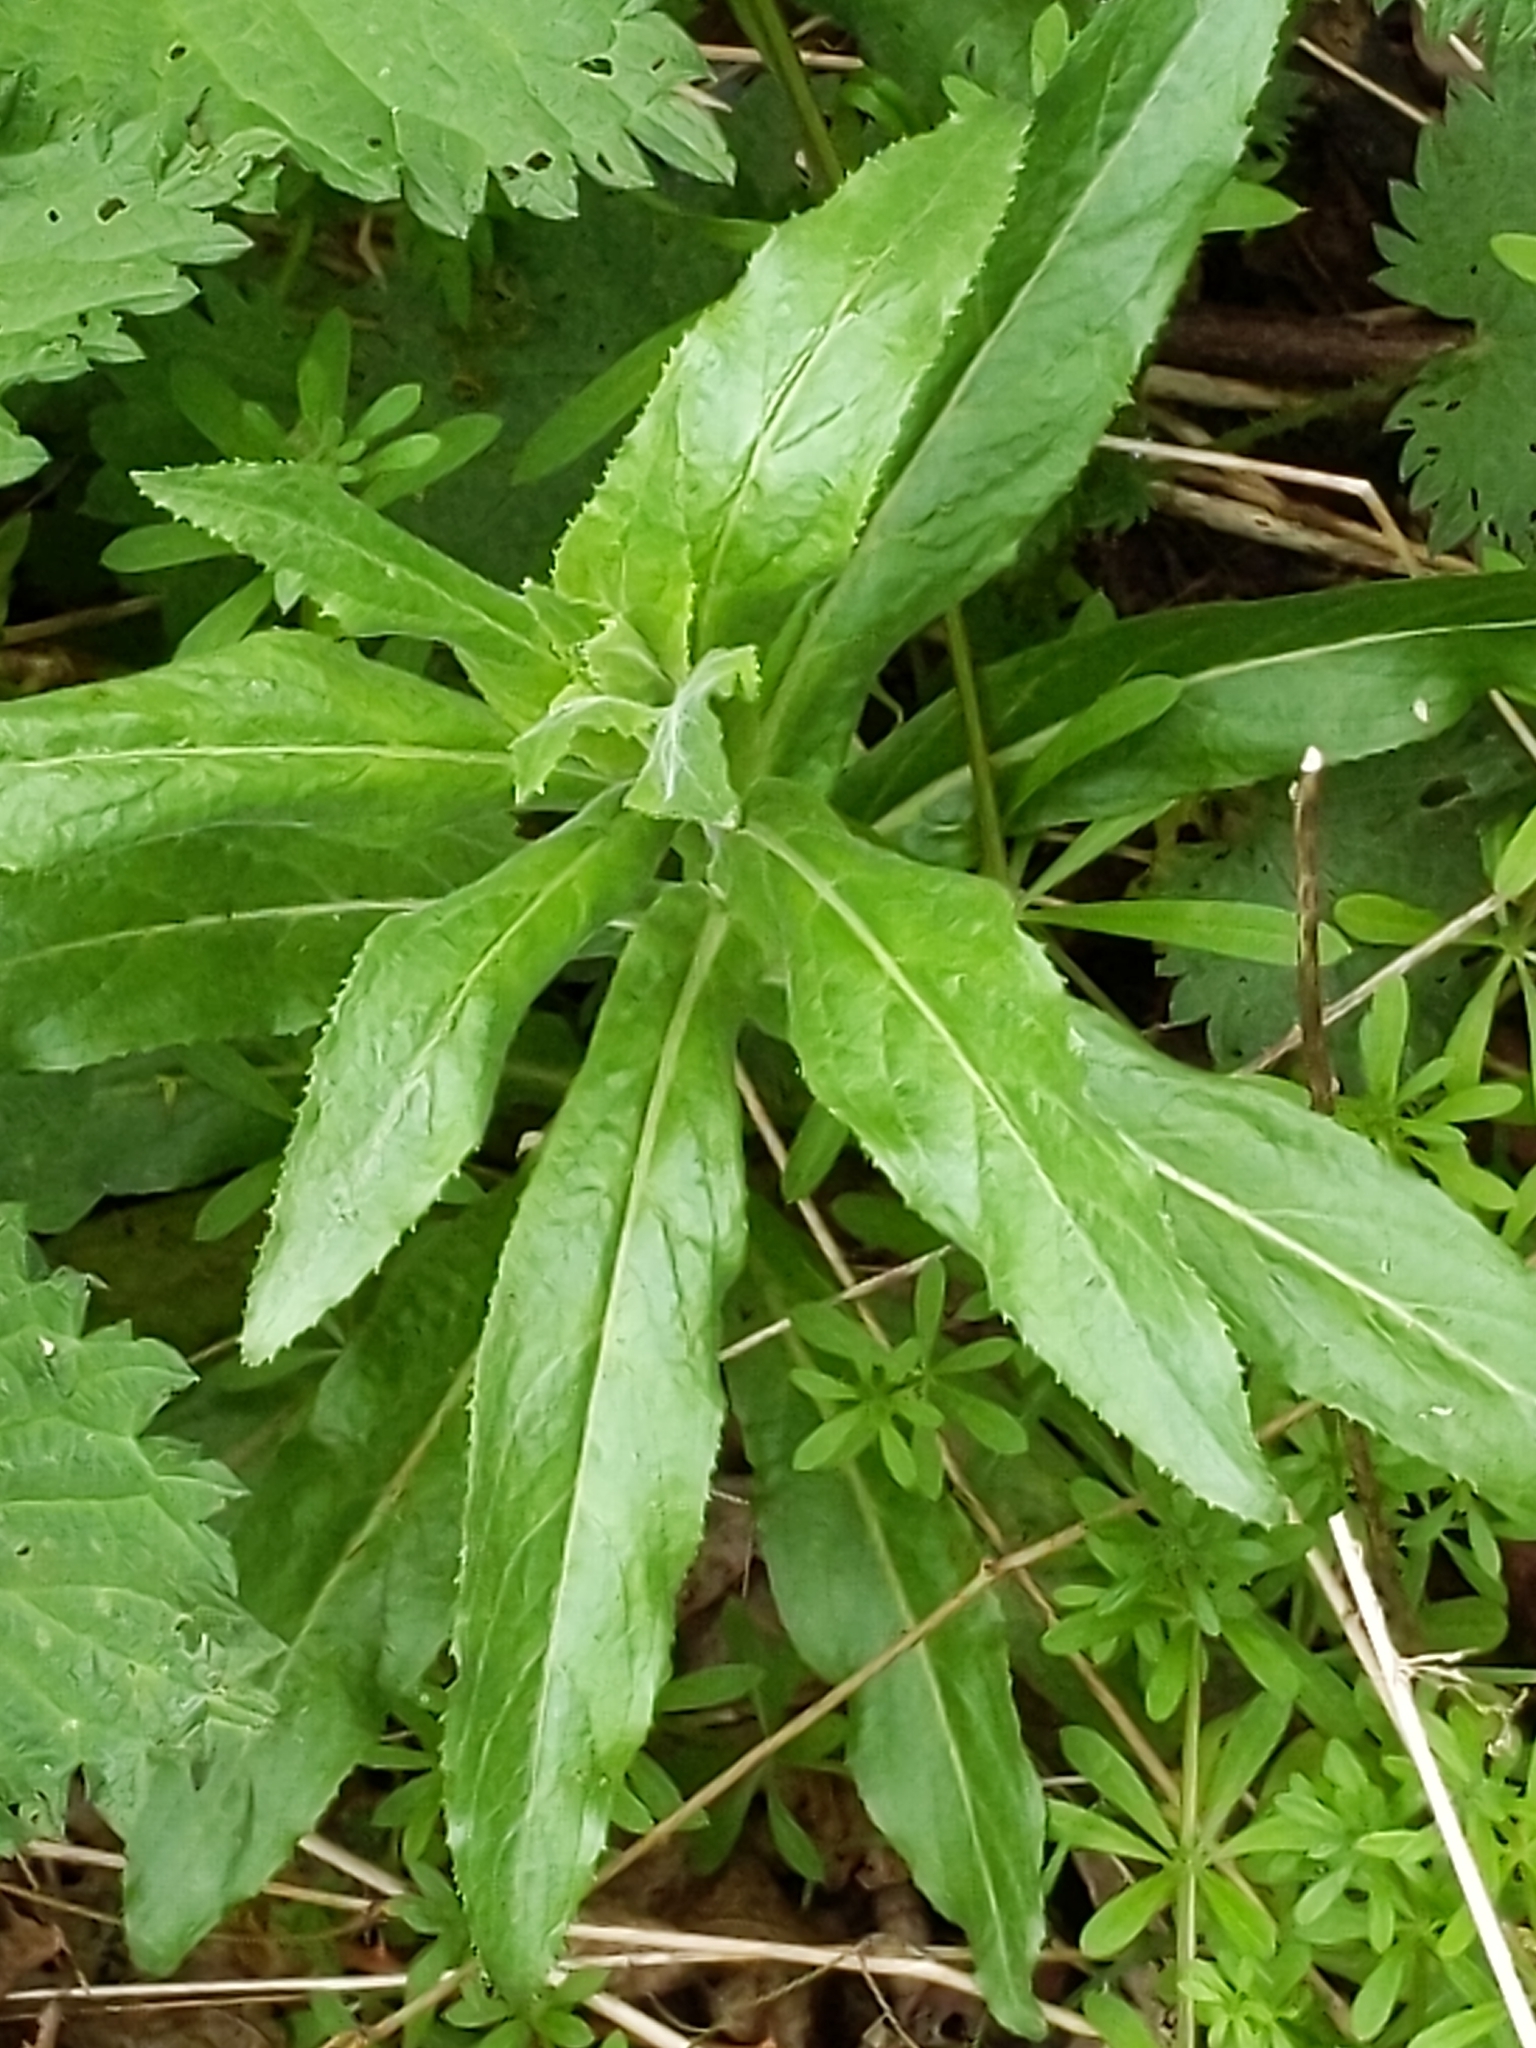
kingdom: Plantae
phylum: Tracheophyta
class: Magnoliopsida
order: Myrtales
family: Onagraceae
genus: Epilobium
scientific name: Epilobium hirsutum
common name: Great willowherb
